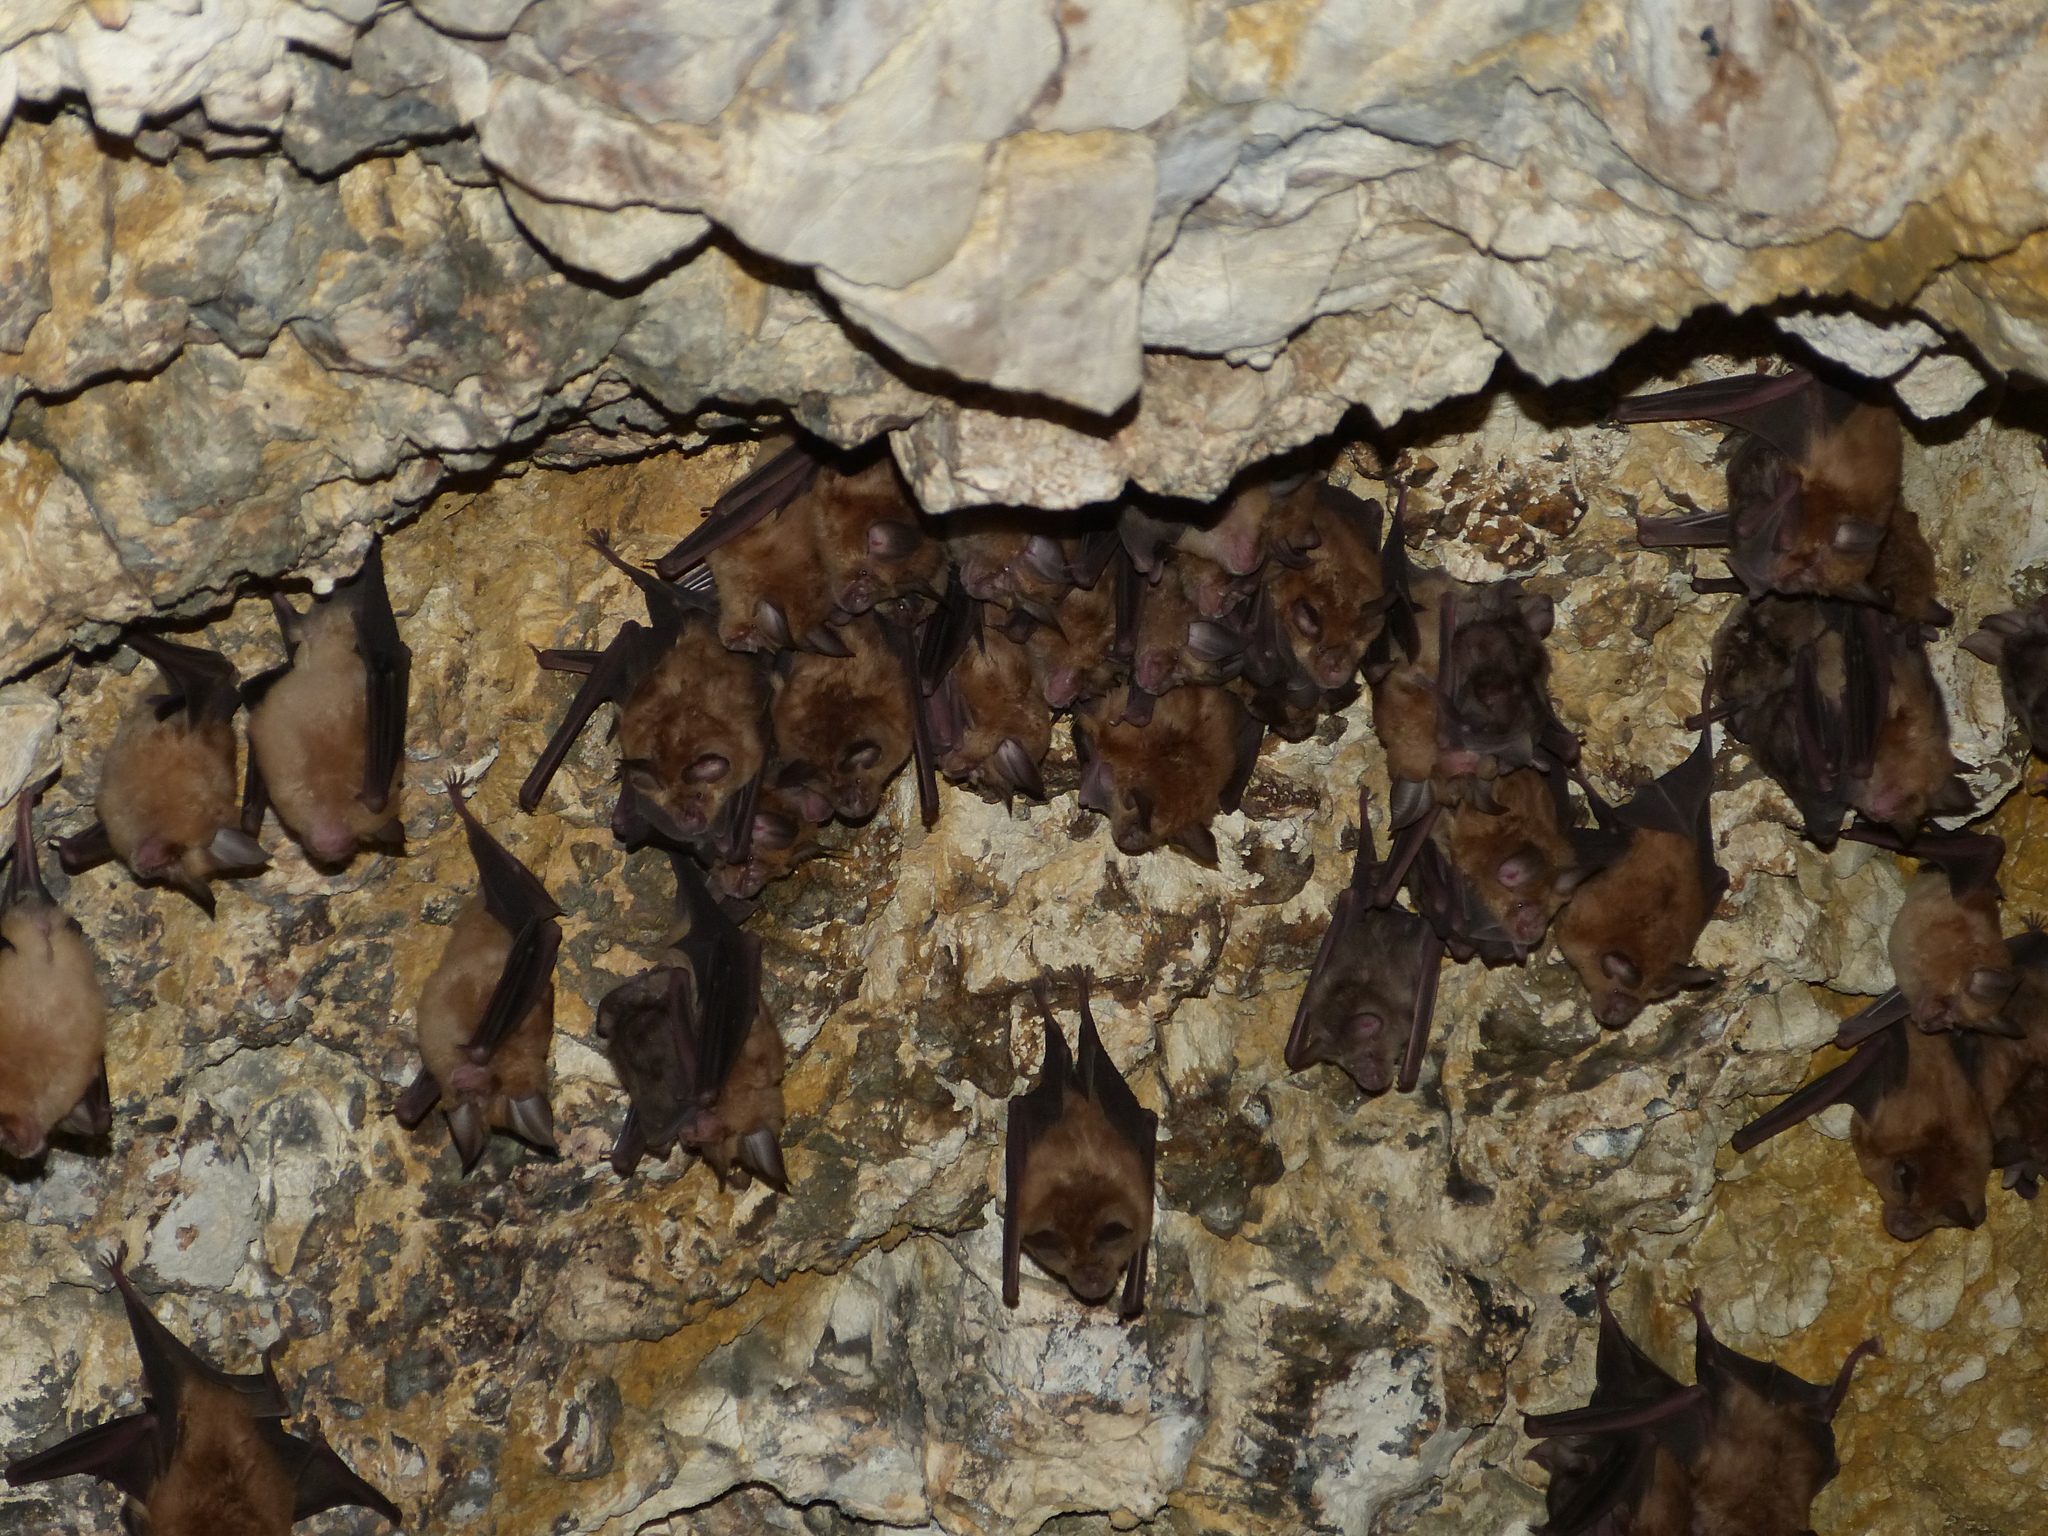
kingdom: Animalia
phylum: Chordata
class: Mammalia
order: Chiroptera
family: Rhinolophidae
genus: Rhinolophus
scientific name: Rhinolophus ferrumequinum
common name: Greater horseshoe bat
